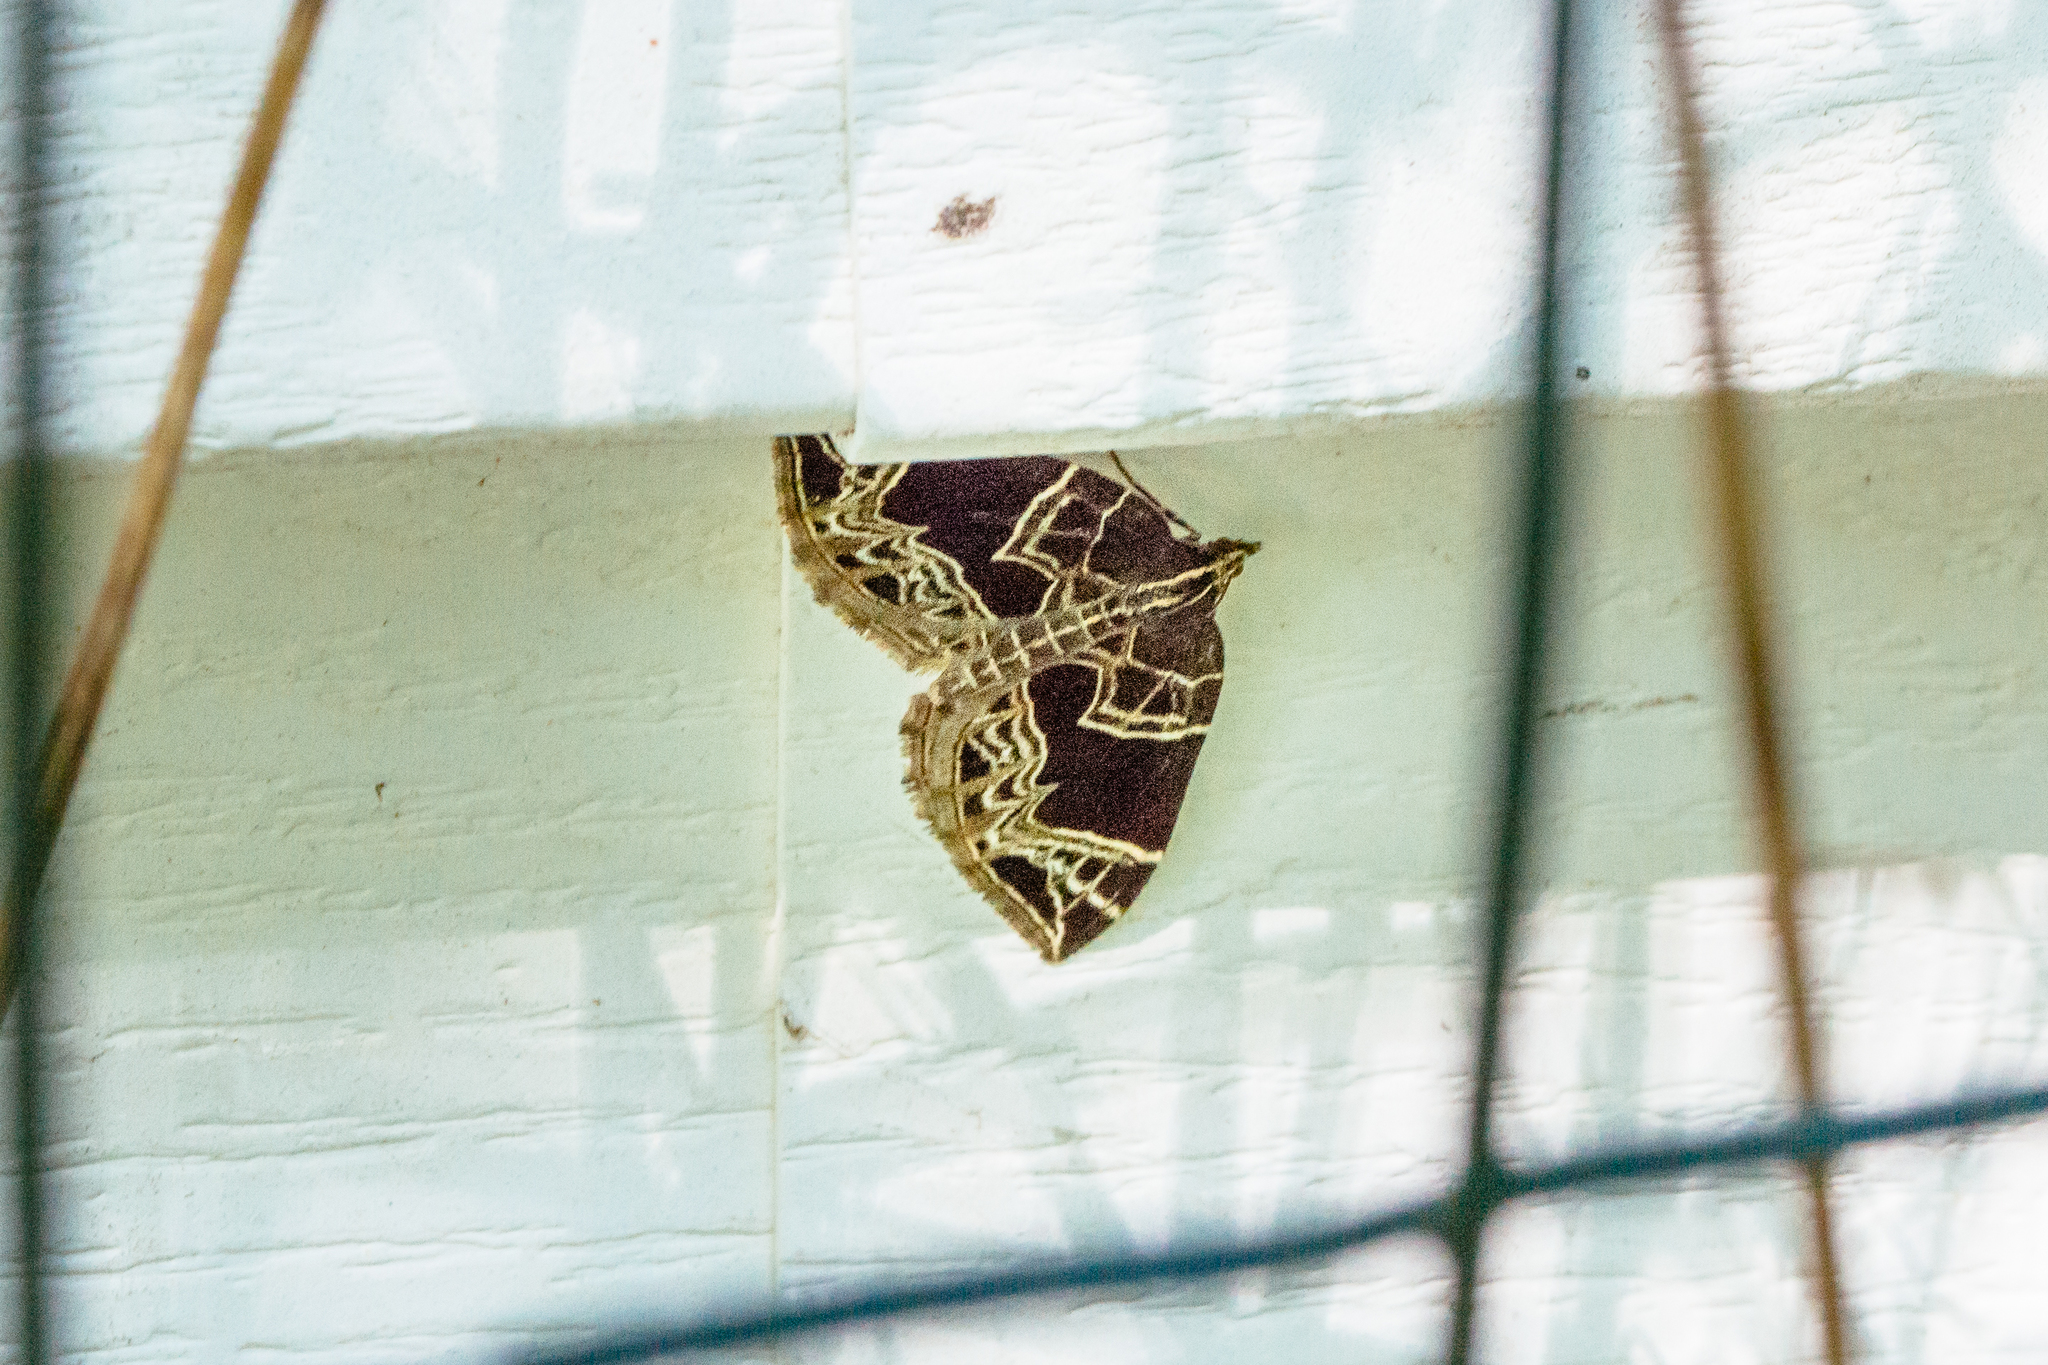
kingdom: Animalia
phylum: Arthropoda
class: Insecta
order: Lepidoptera
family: Geometridae
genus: Ecliptopera
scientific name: Ecliptopera atricolorata
